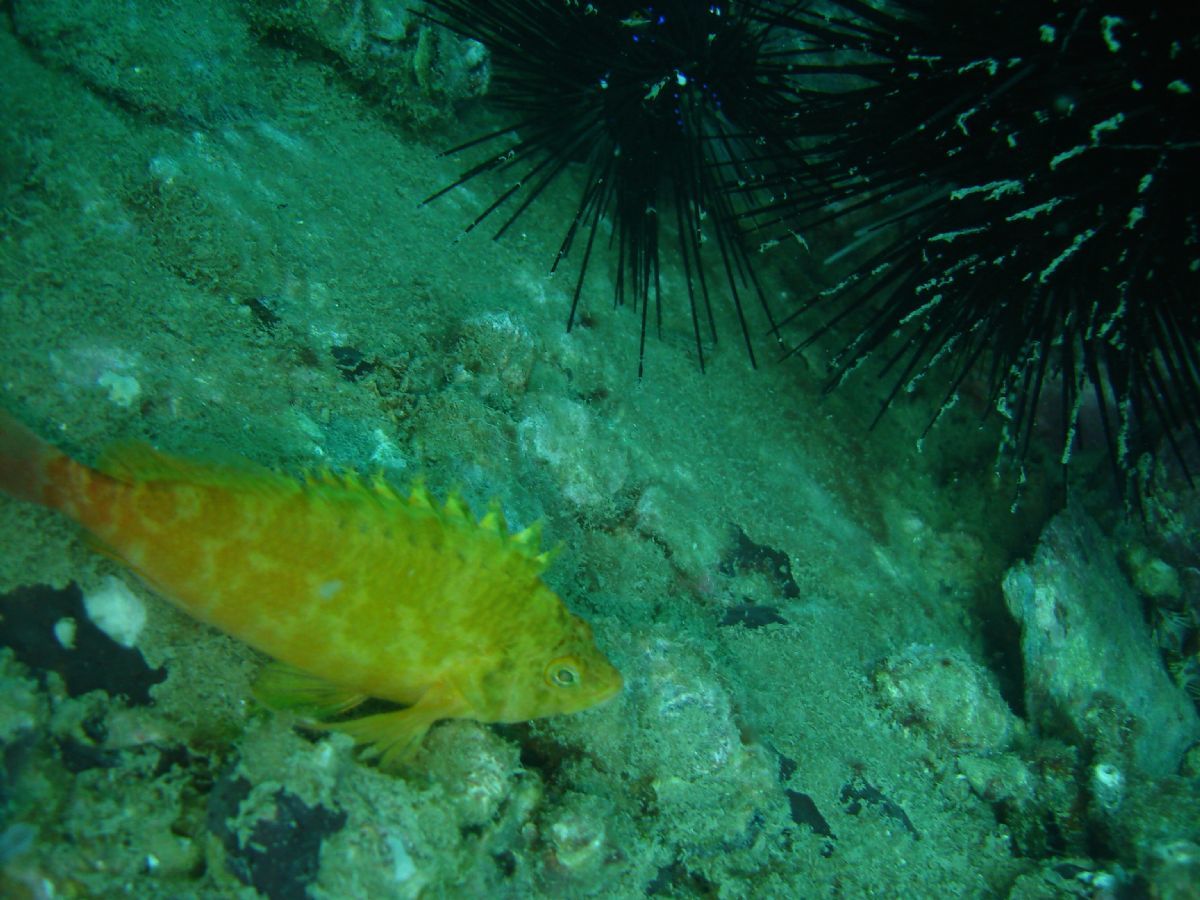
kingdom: Animalia
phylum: Chordata
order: Perciformes
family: Cirrhitidae
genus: Cirrhitichthys
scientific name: Cirrhitichthys aureus
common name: Yellow hawkfish
